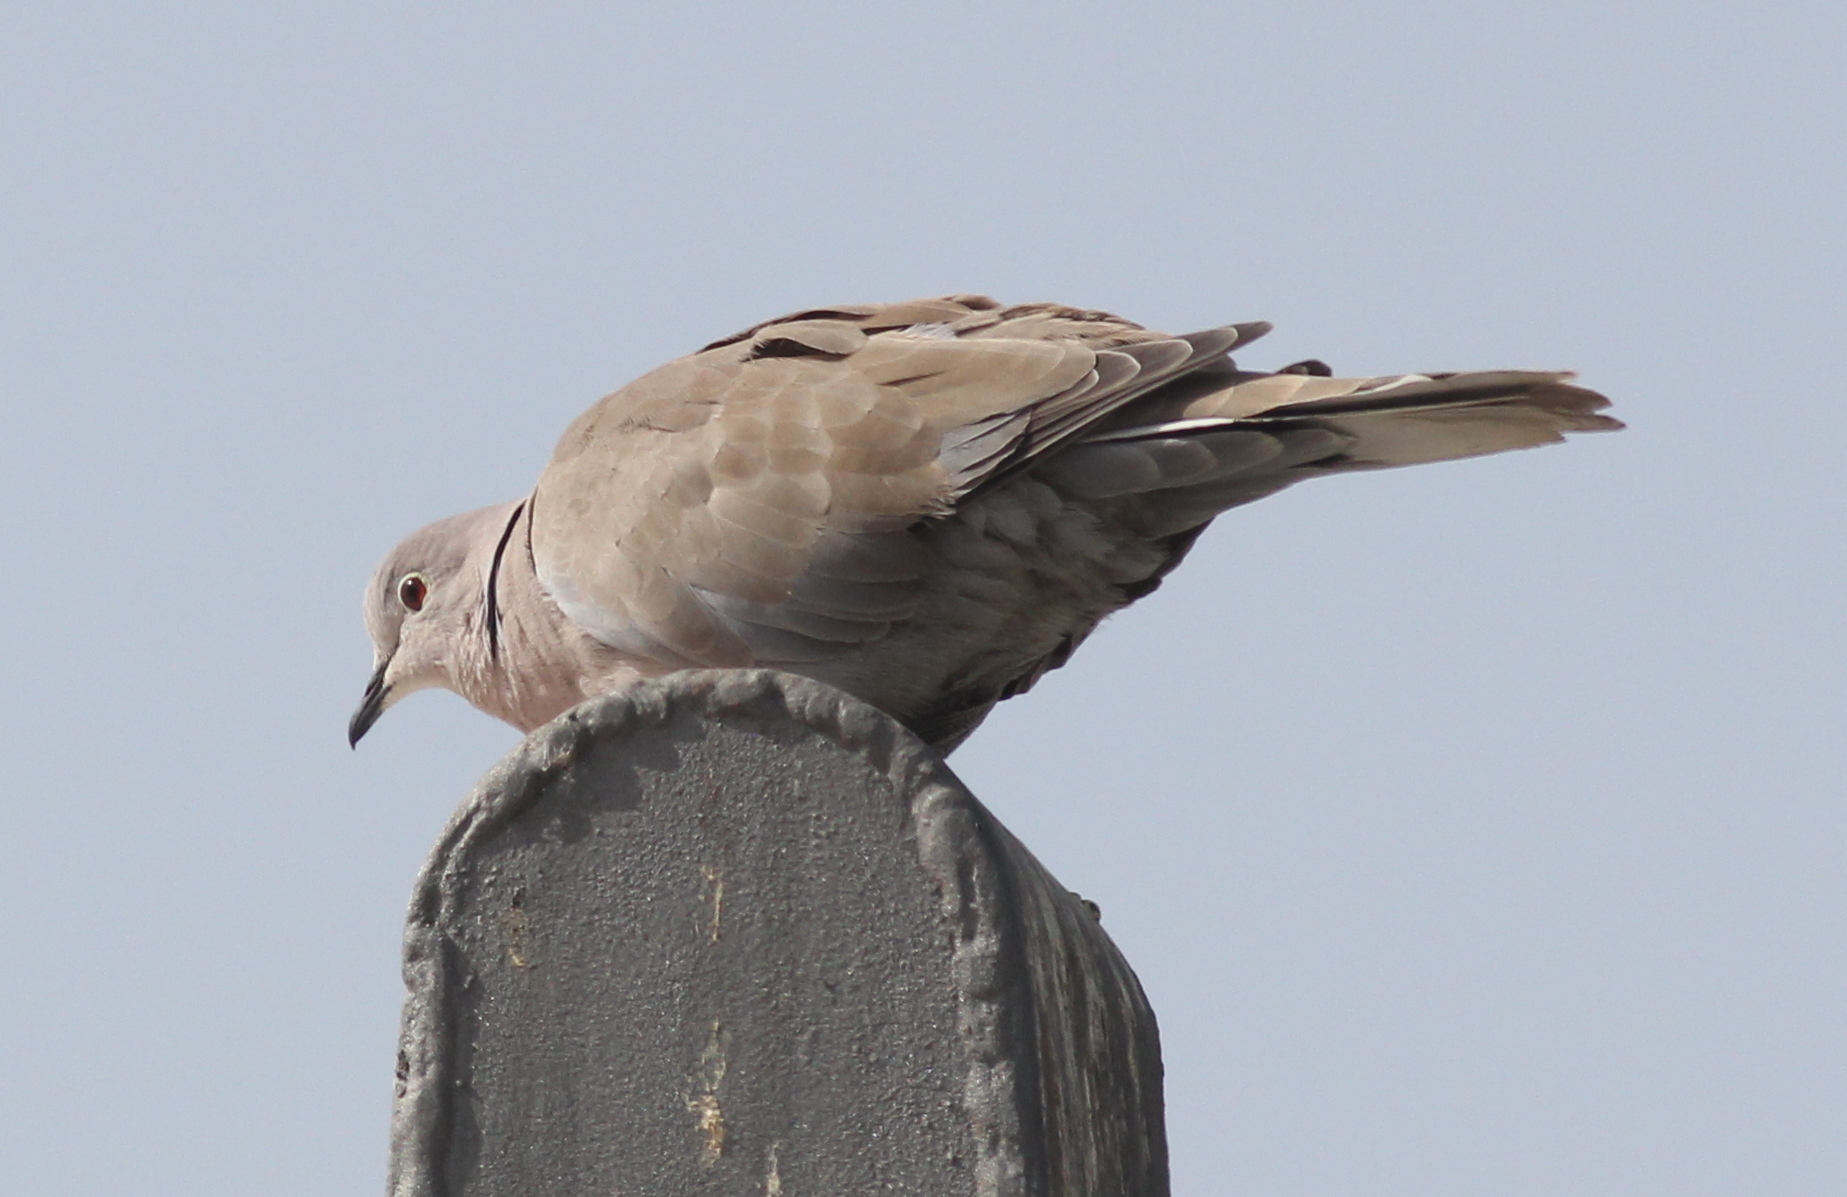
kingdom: Animalia
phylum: Chordata
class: Aves
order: Columbiformes
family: Columbidae
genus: Streptopelia
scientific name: Streptopelia decaocto
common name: Eurasian collared dove
